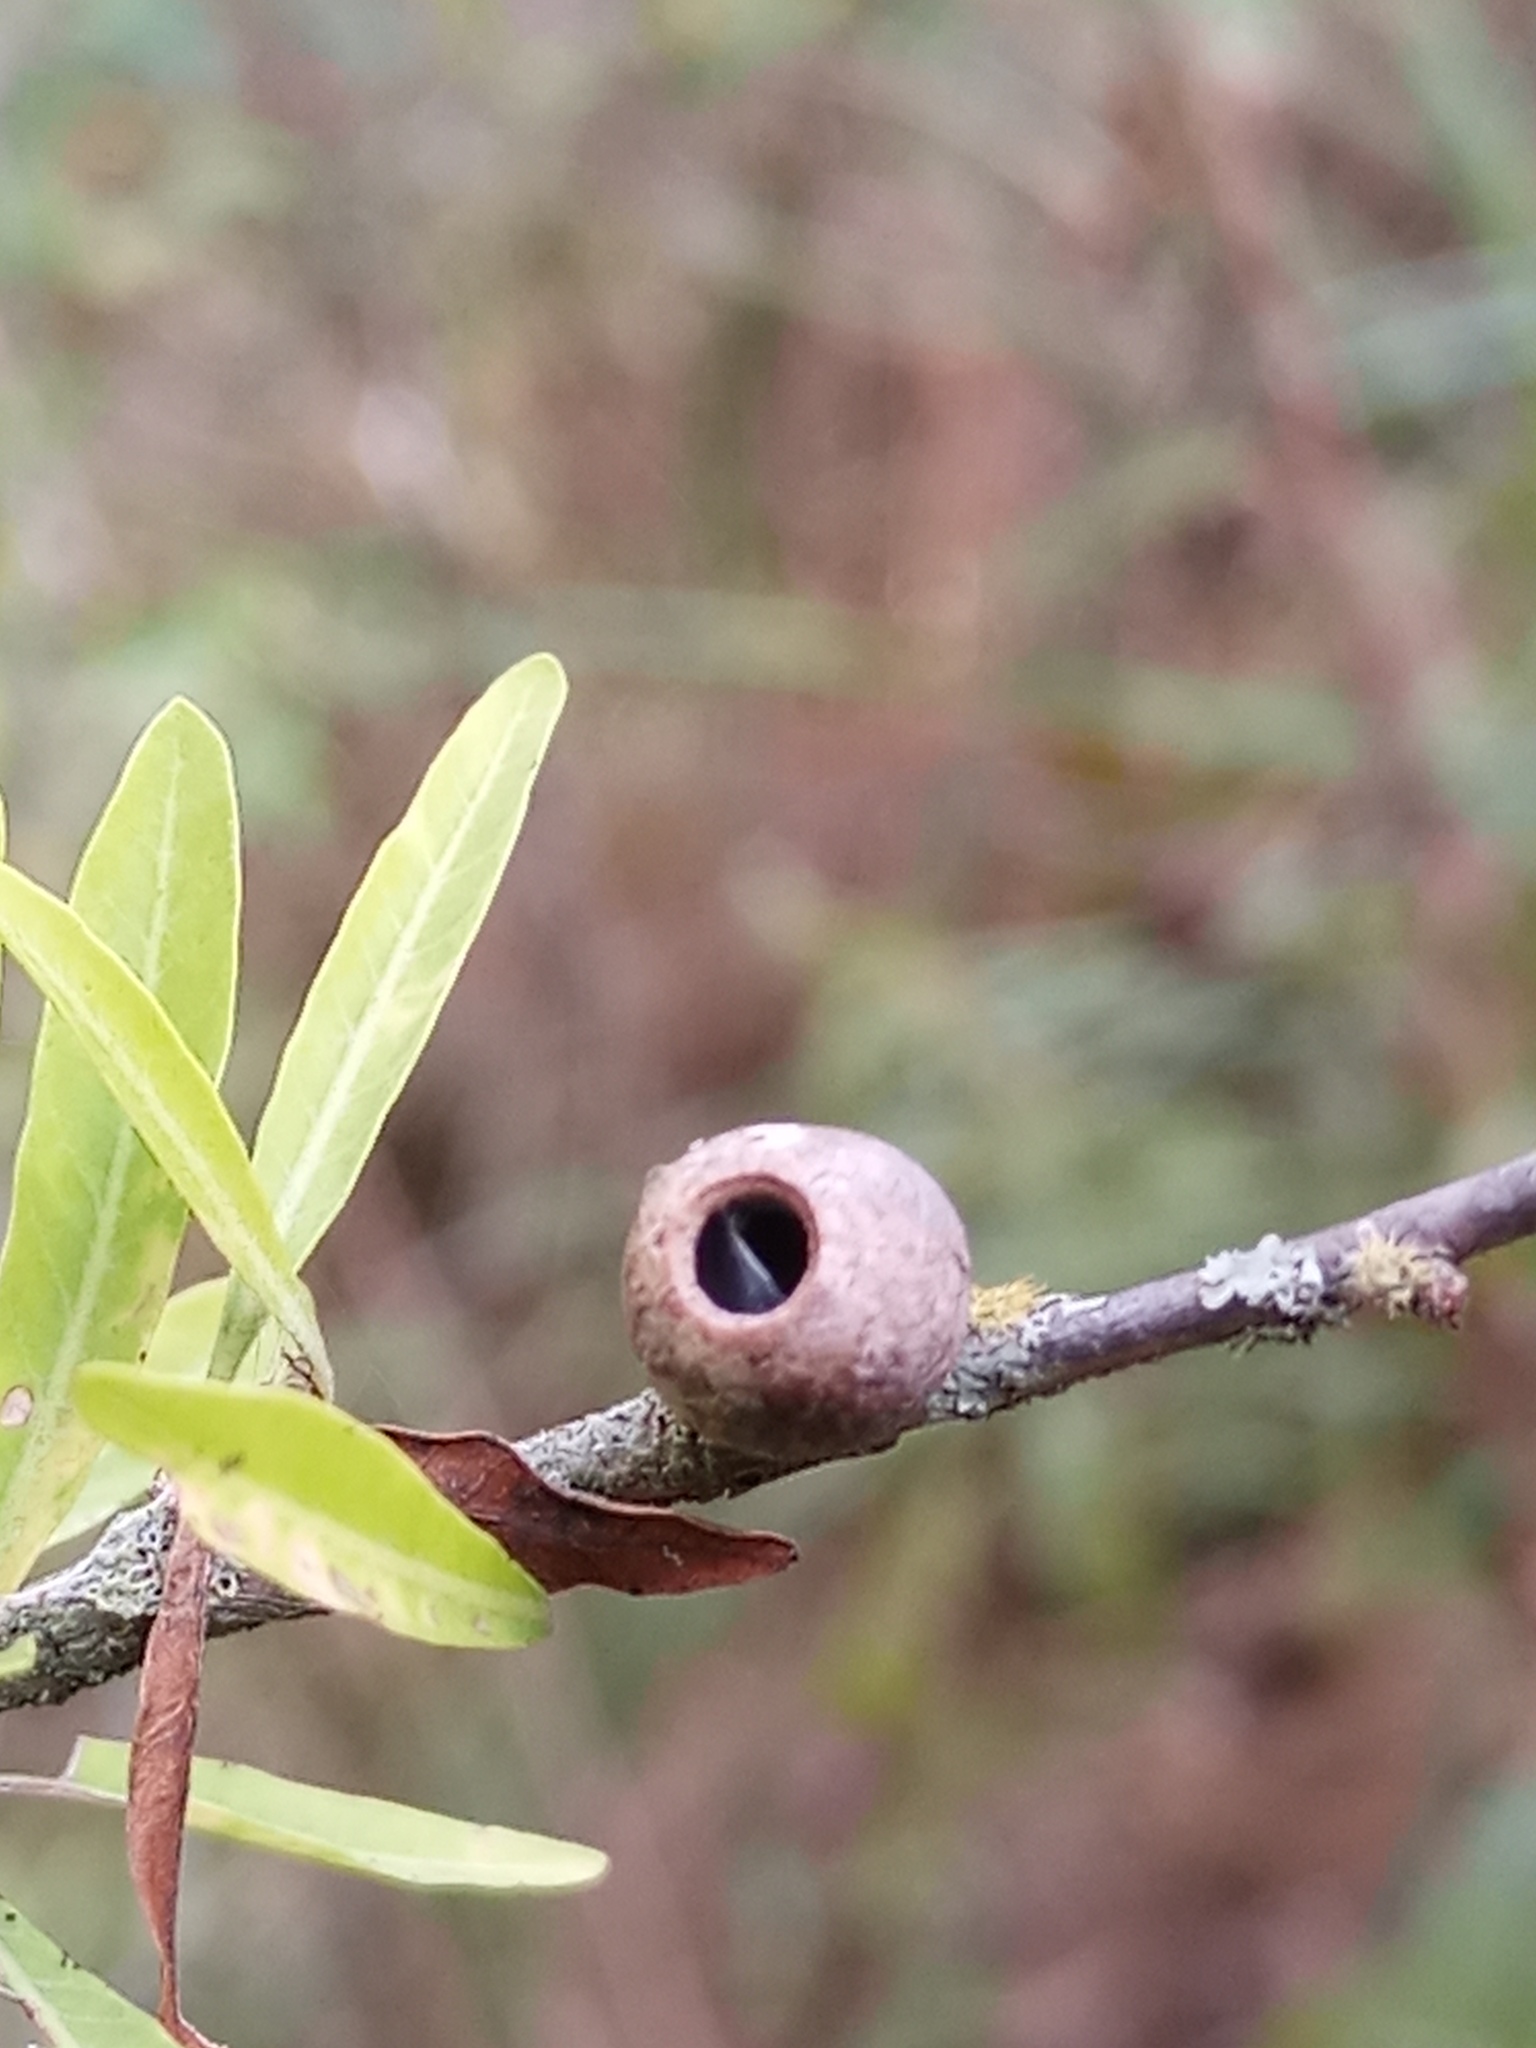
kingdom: Animalia
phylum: Arthropoda
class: Insecta
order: Lepidoptera
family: Cecidosidae
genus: Cecidoses
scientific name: Cecidoses eremita
